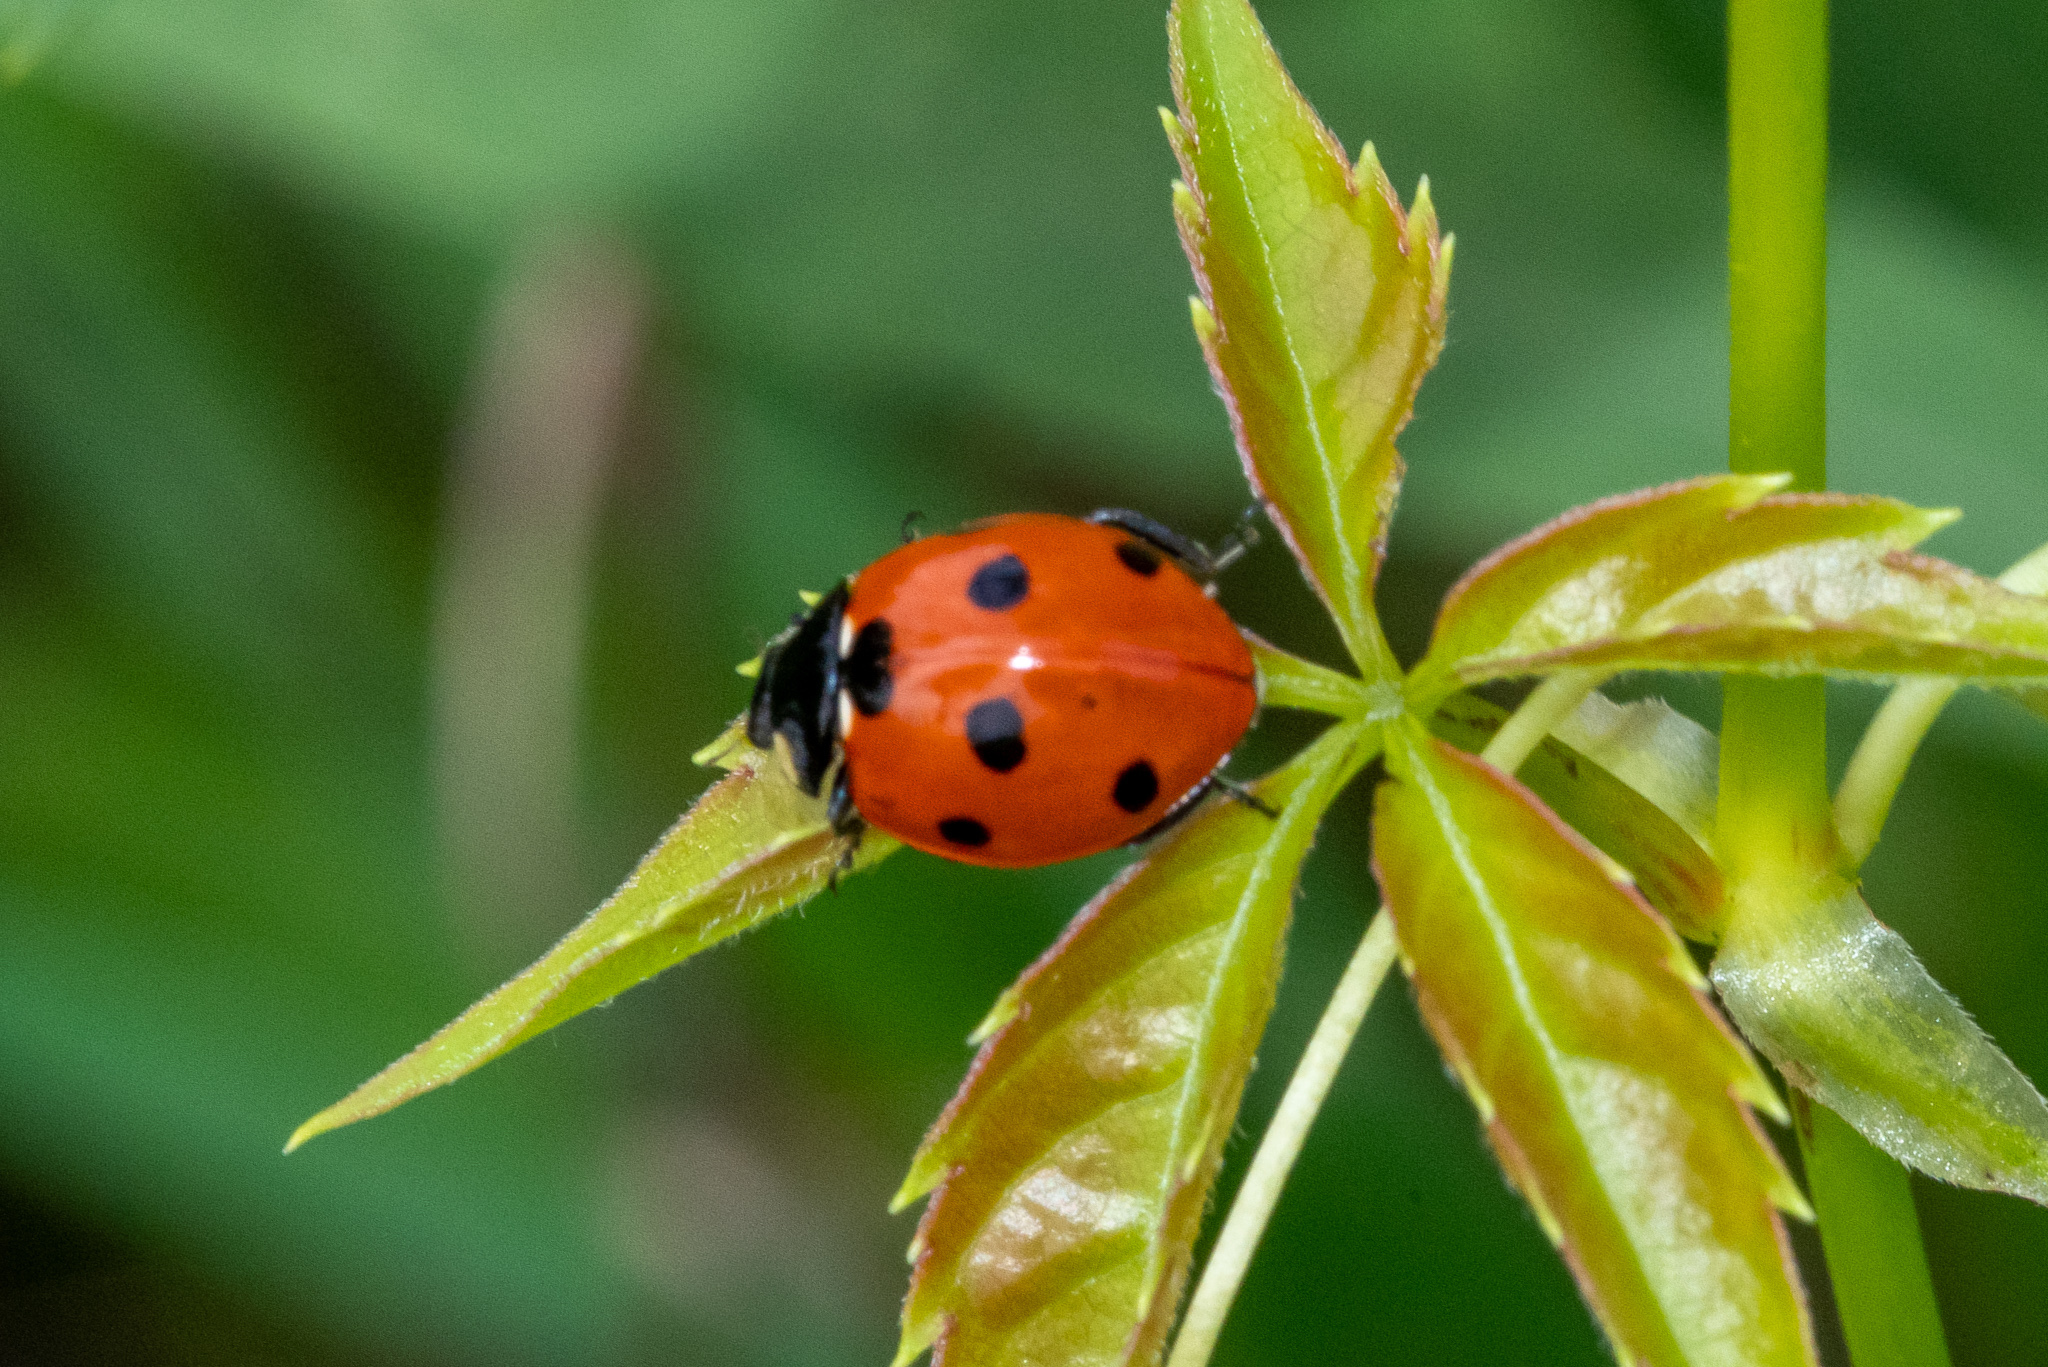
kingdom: Animalia
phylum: Arthropoda
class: Insecta
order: Coleoptera
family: Coccinellidae
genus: Coccinella
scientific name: Coccinella septempunctata
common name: Sevenspotted lady beetle
